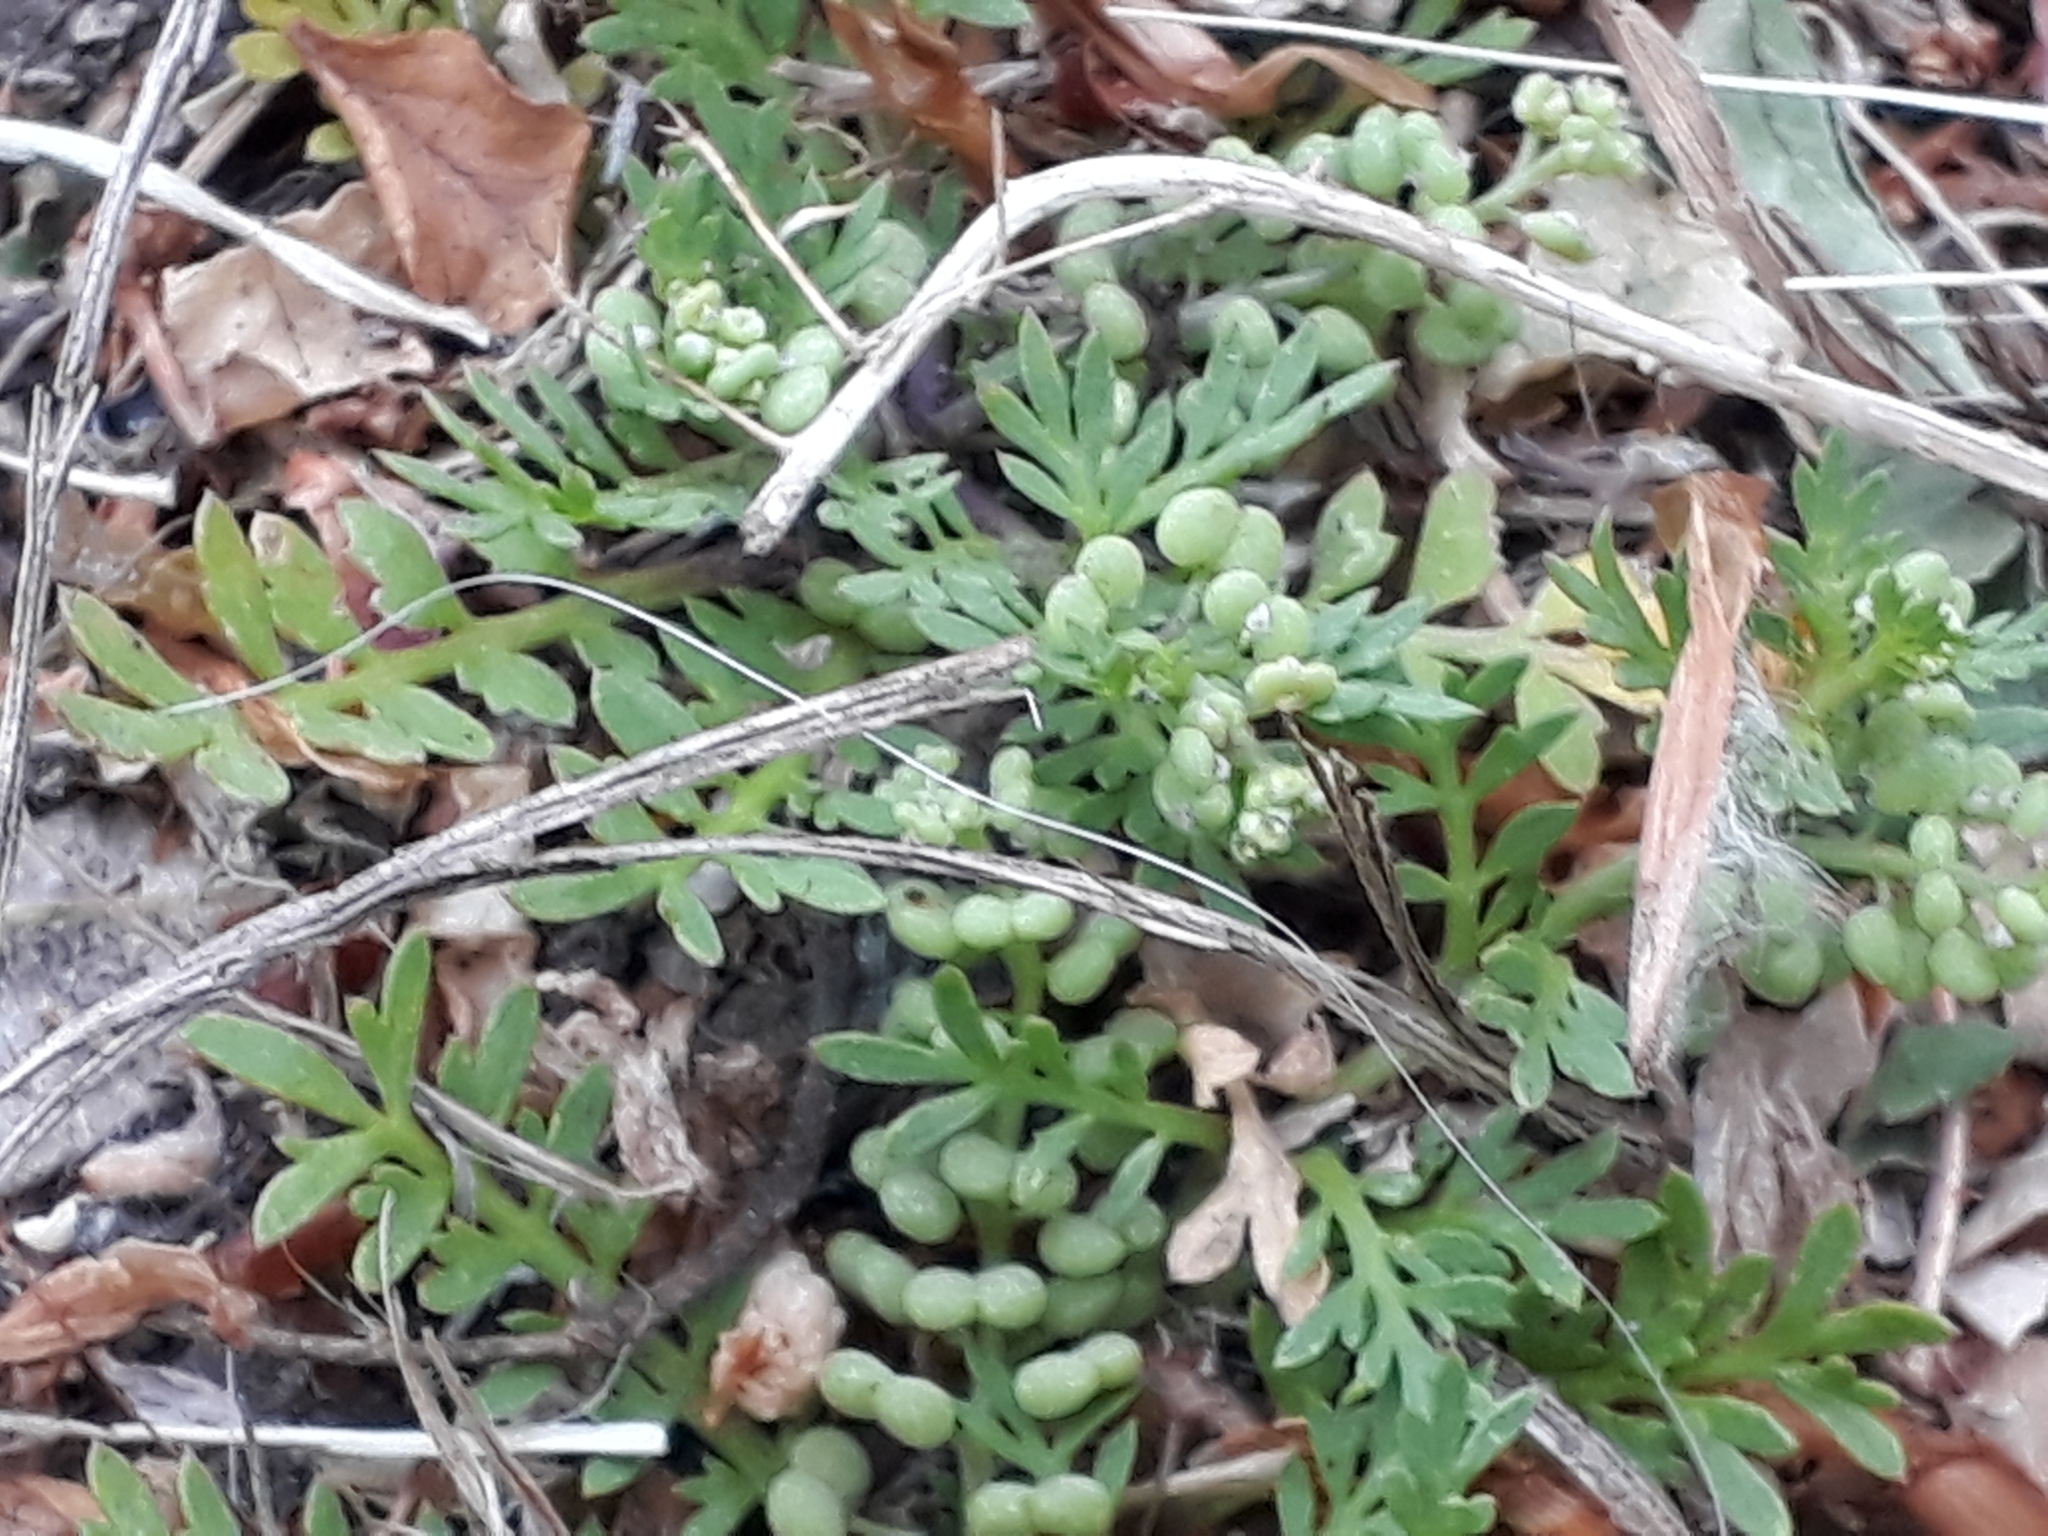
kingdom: Plantae
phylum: Tracheophyta
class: Magnoliopsida
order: Brassicales
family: Brassicaceae
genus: Lepidium
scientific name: Lepidium didymum
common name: Lesser swinecress
